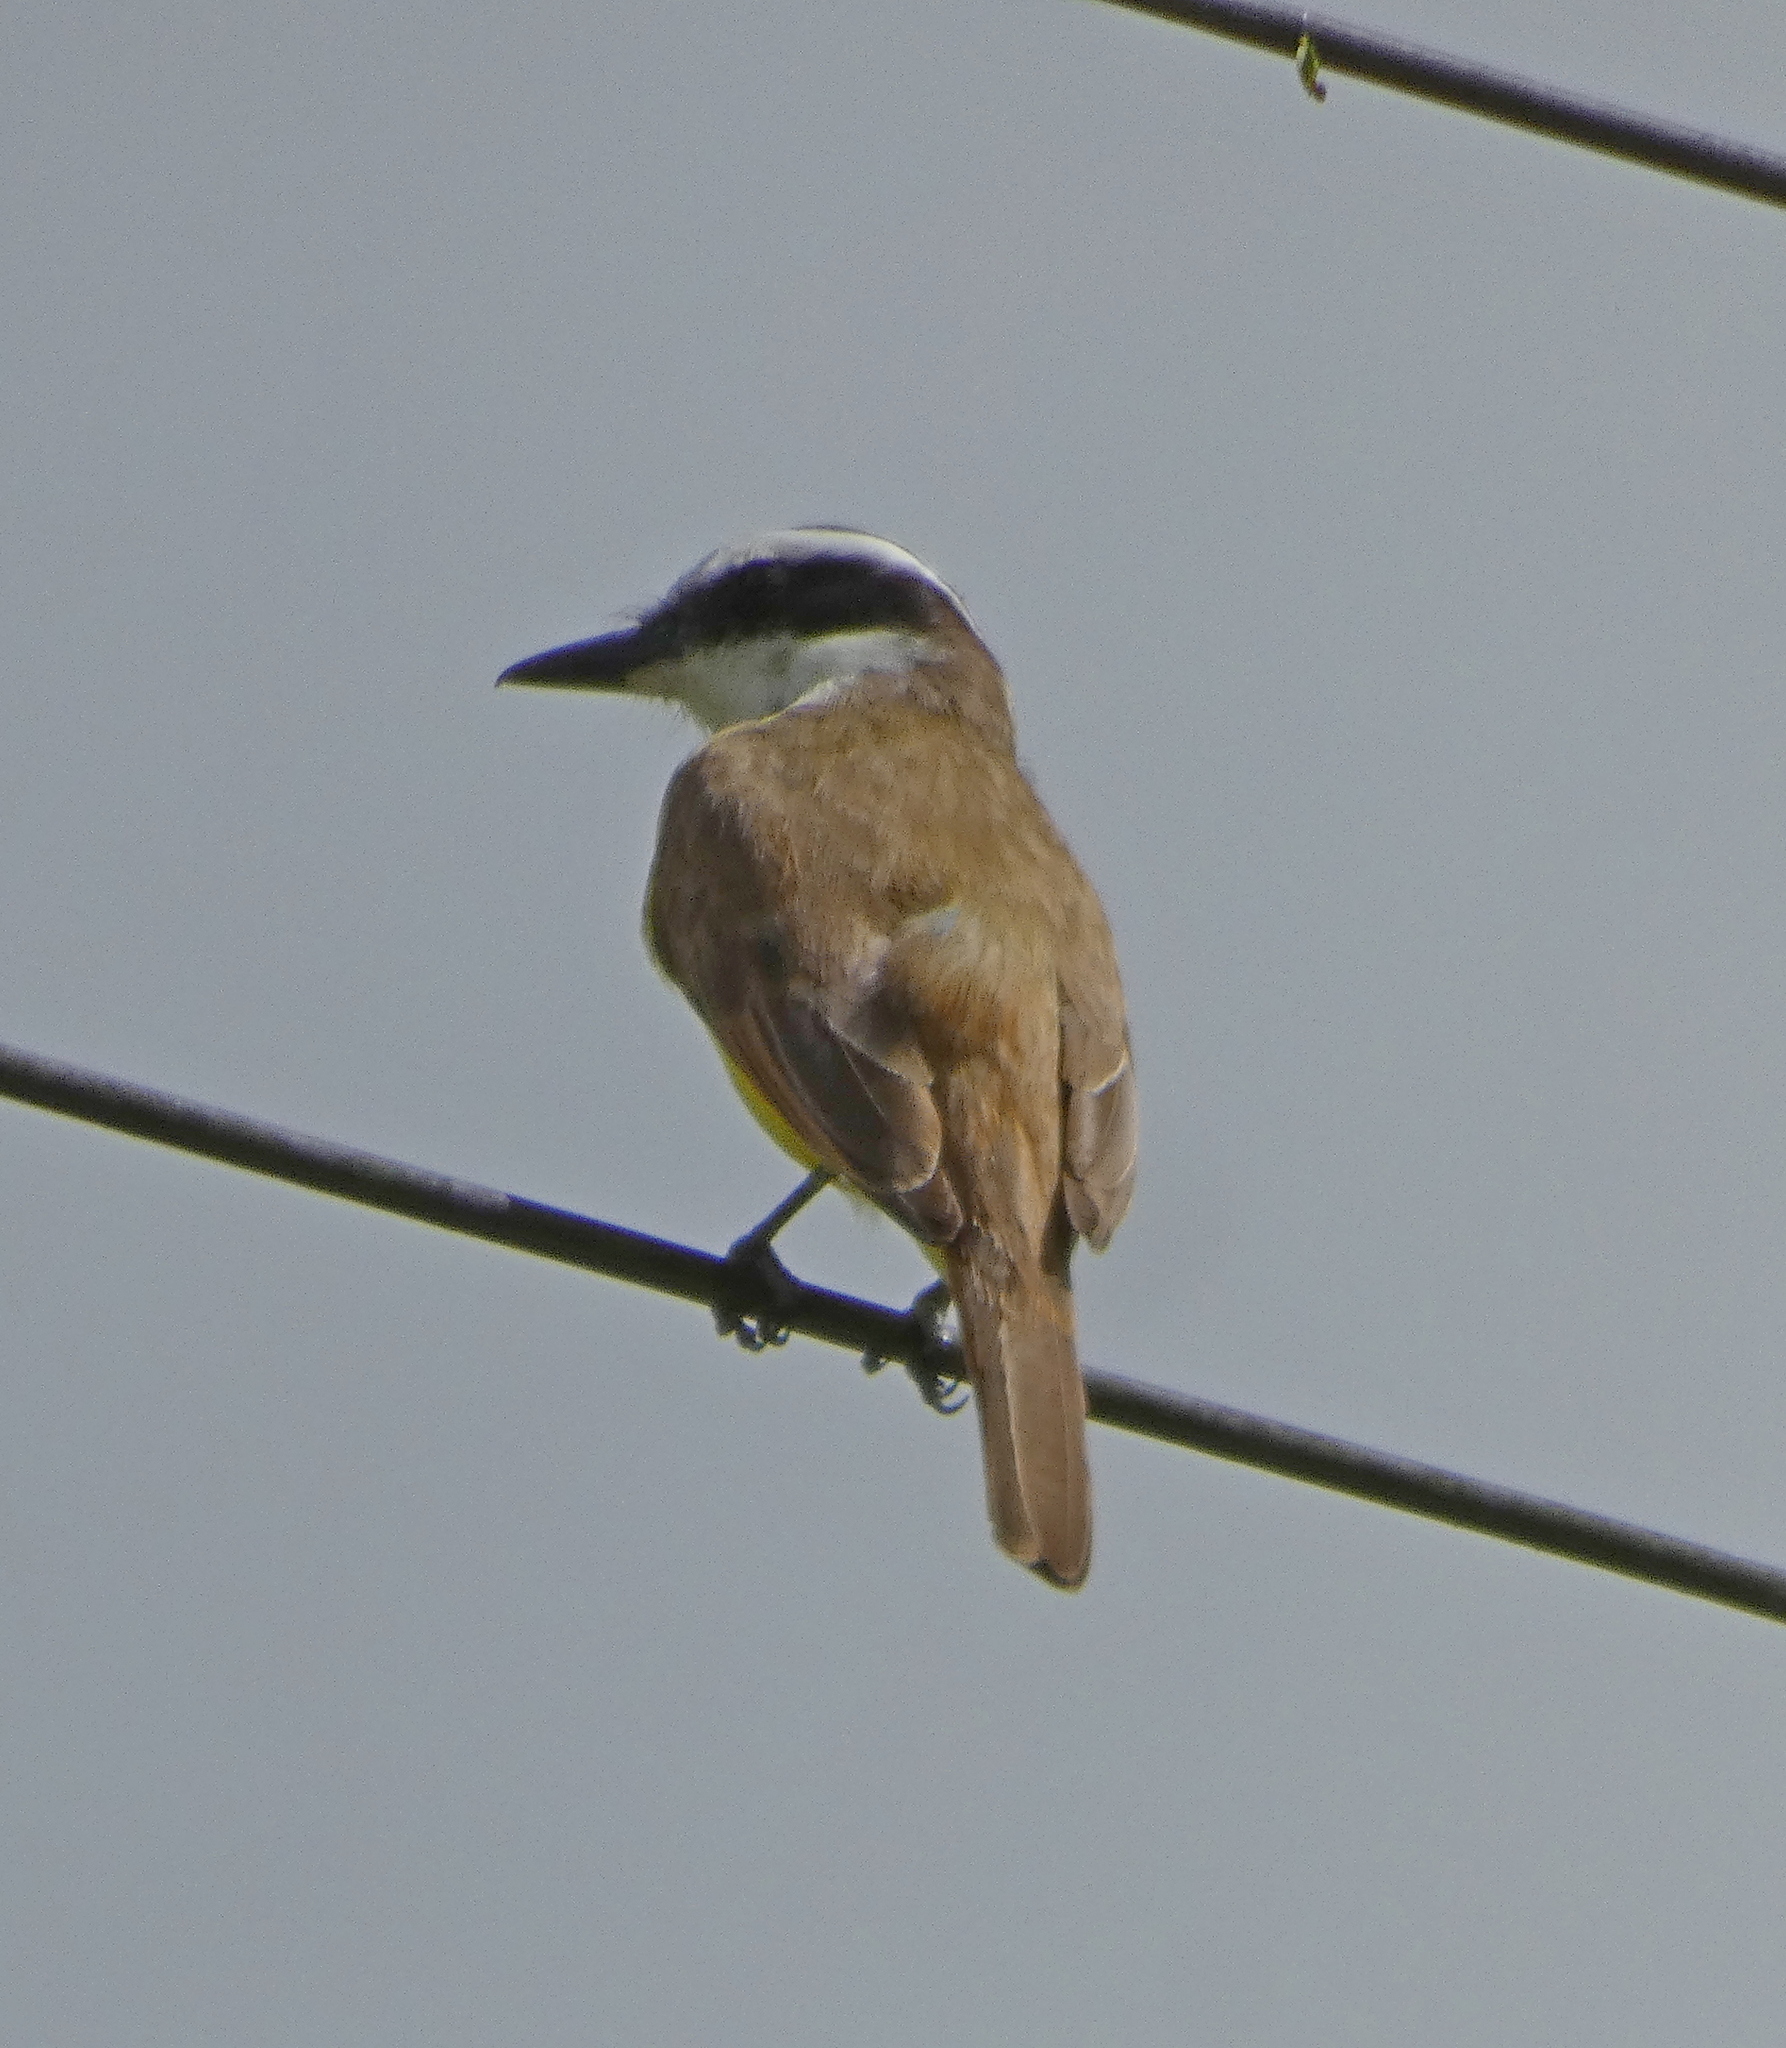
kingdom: Animalia
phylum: Chordata
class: Aves
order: Passeriformes
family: Tyrannidae
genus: Pitangus
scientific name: Pitangus sulphuratus
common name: Great kiskadee
